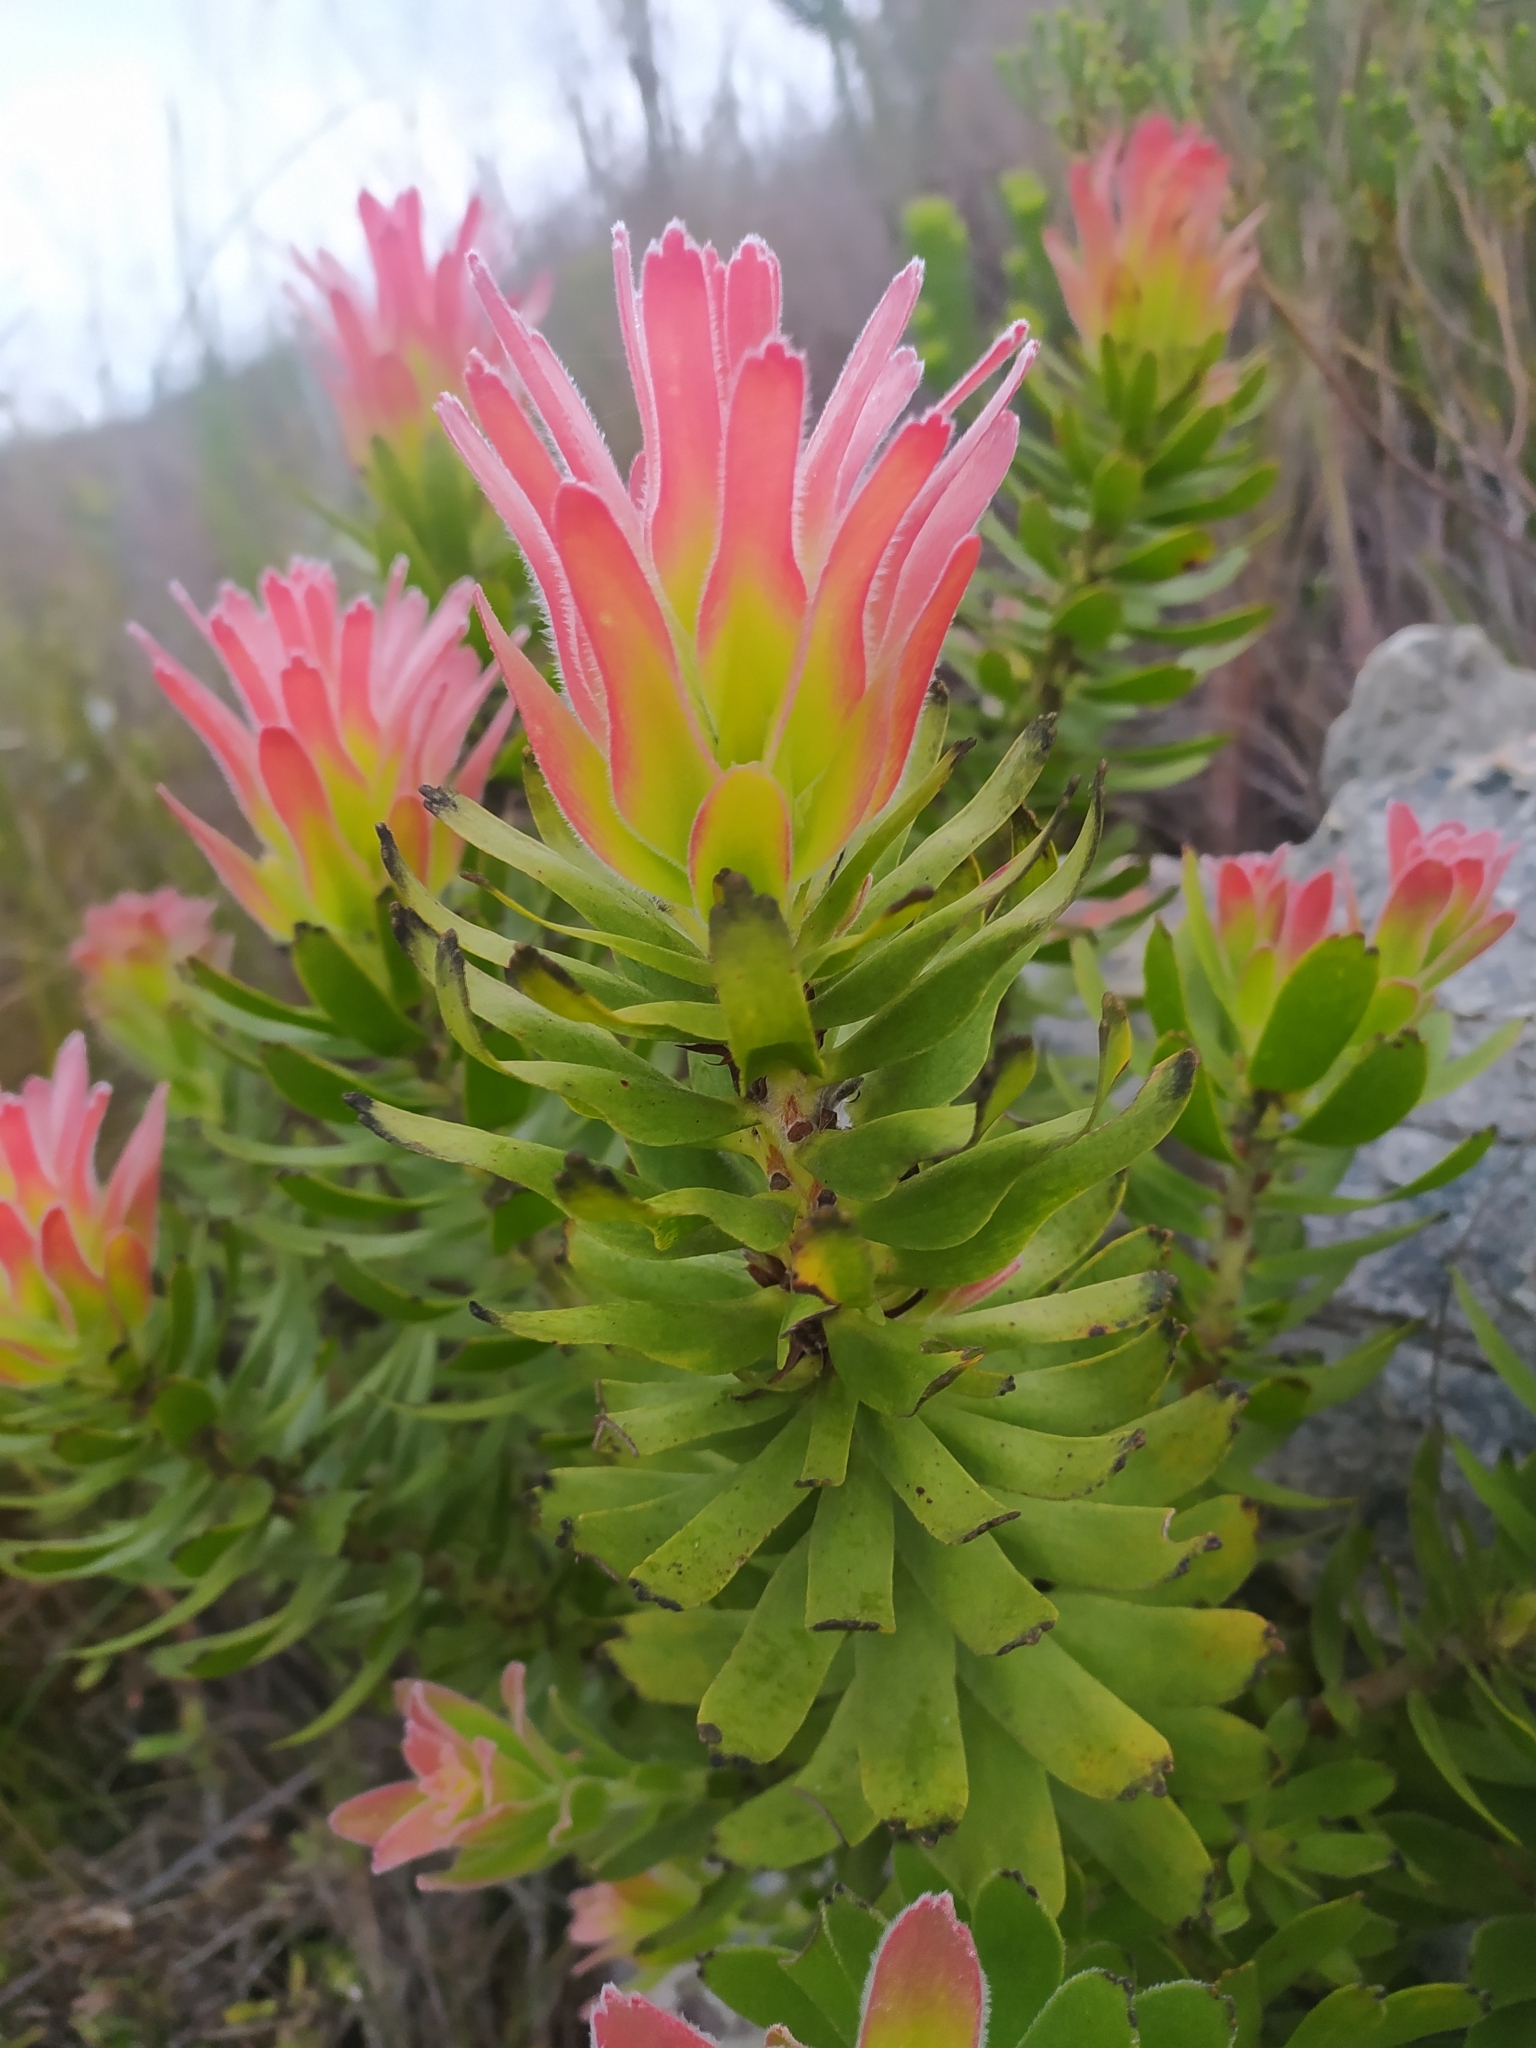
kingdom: Plantae
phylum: Tracheophyta
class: Magnoliopsida
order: Proteales
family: Proteaceae
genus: Mimetes
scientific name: Mimetes cucullatus
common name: Common pagoda
